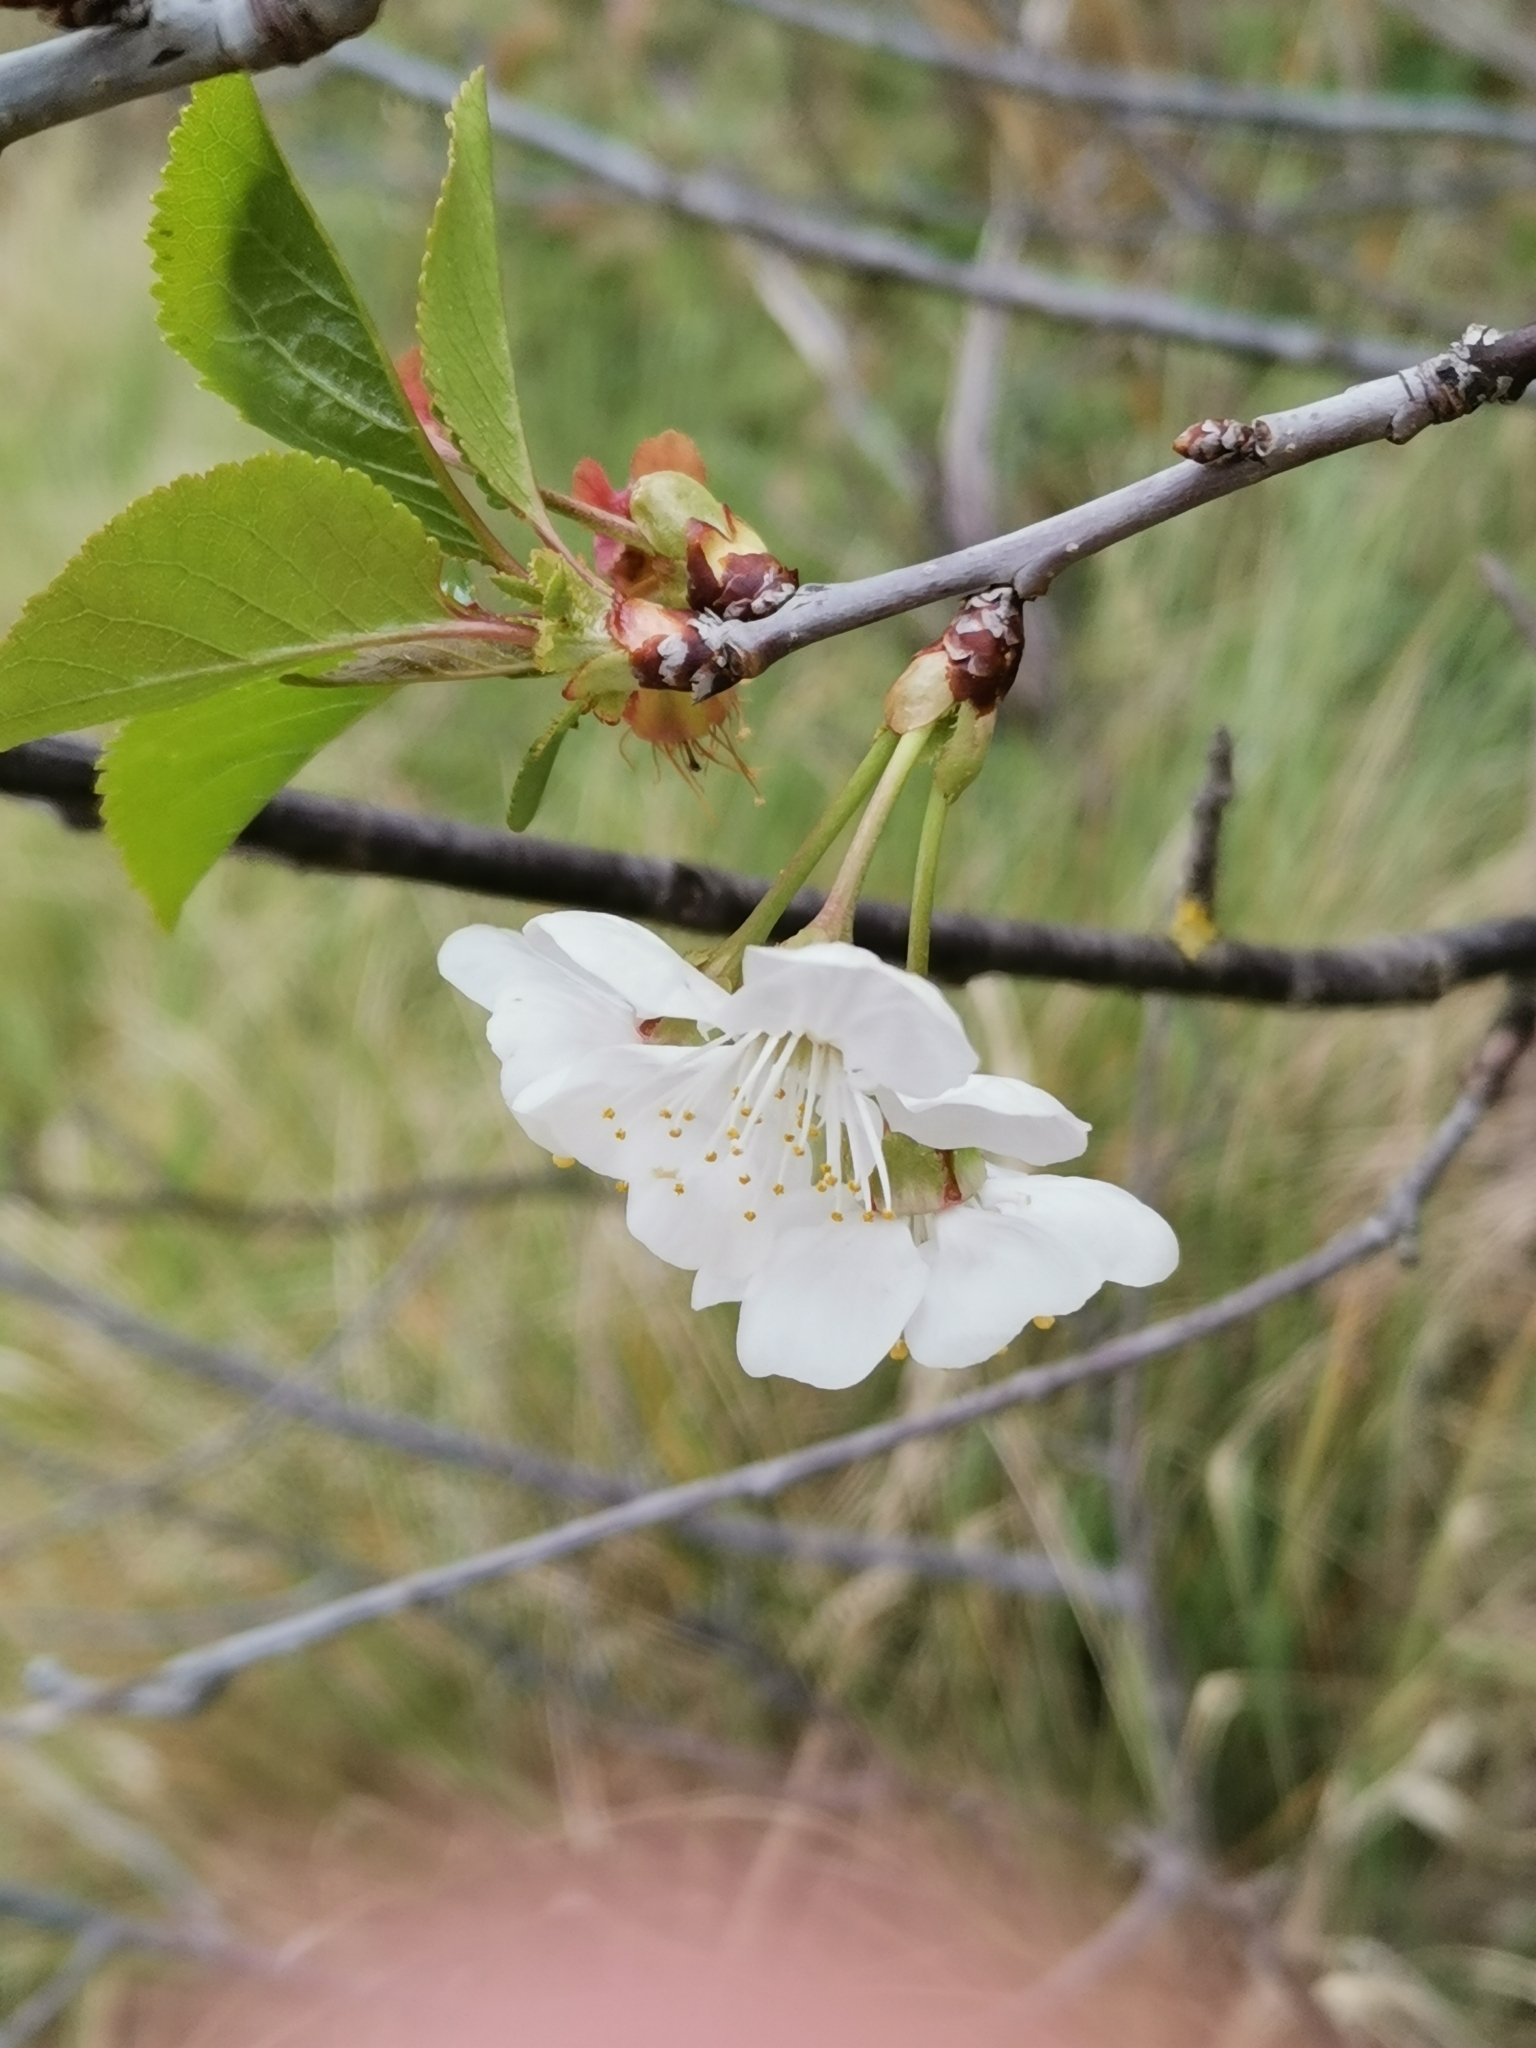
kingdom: Plantae
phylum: Tracheophyta
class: Magnoliopsida
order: Rosales
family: Rosaceae
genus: Prunus
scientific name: Prunus cerasus
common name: Morello cherry
